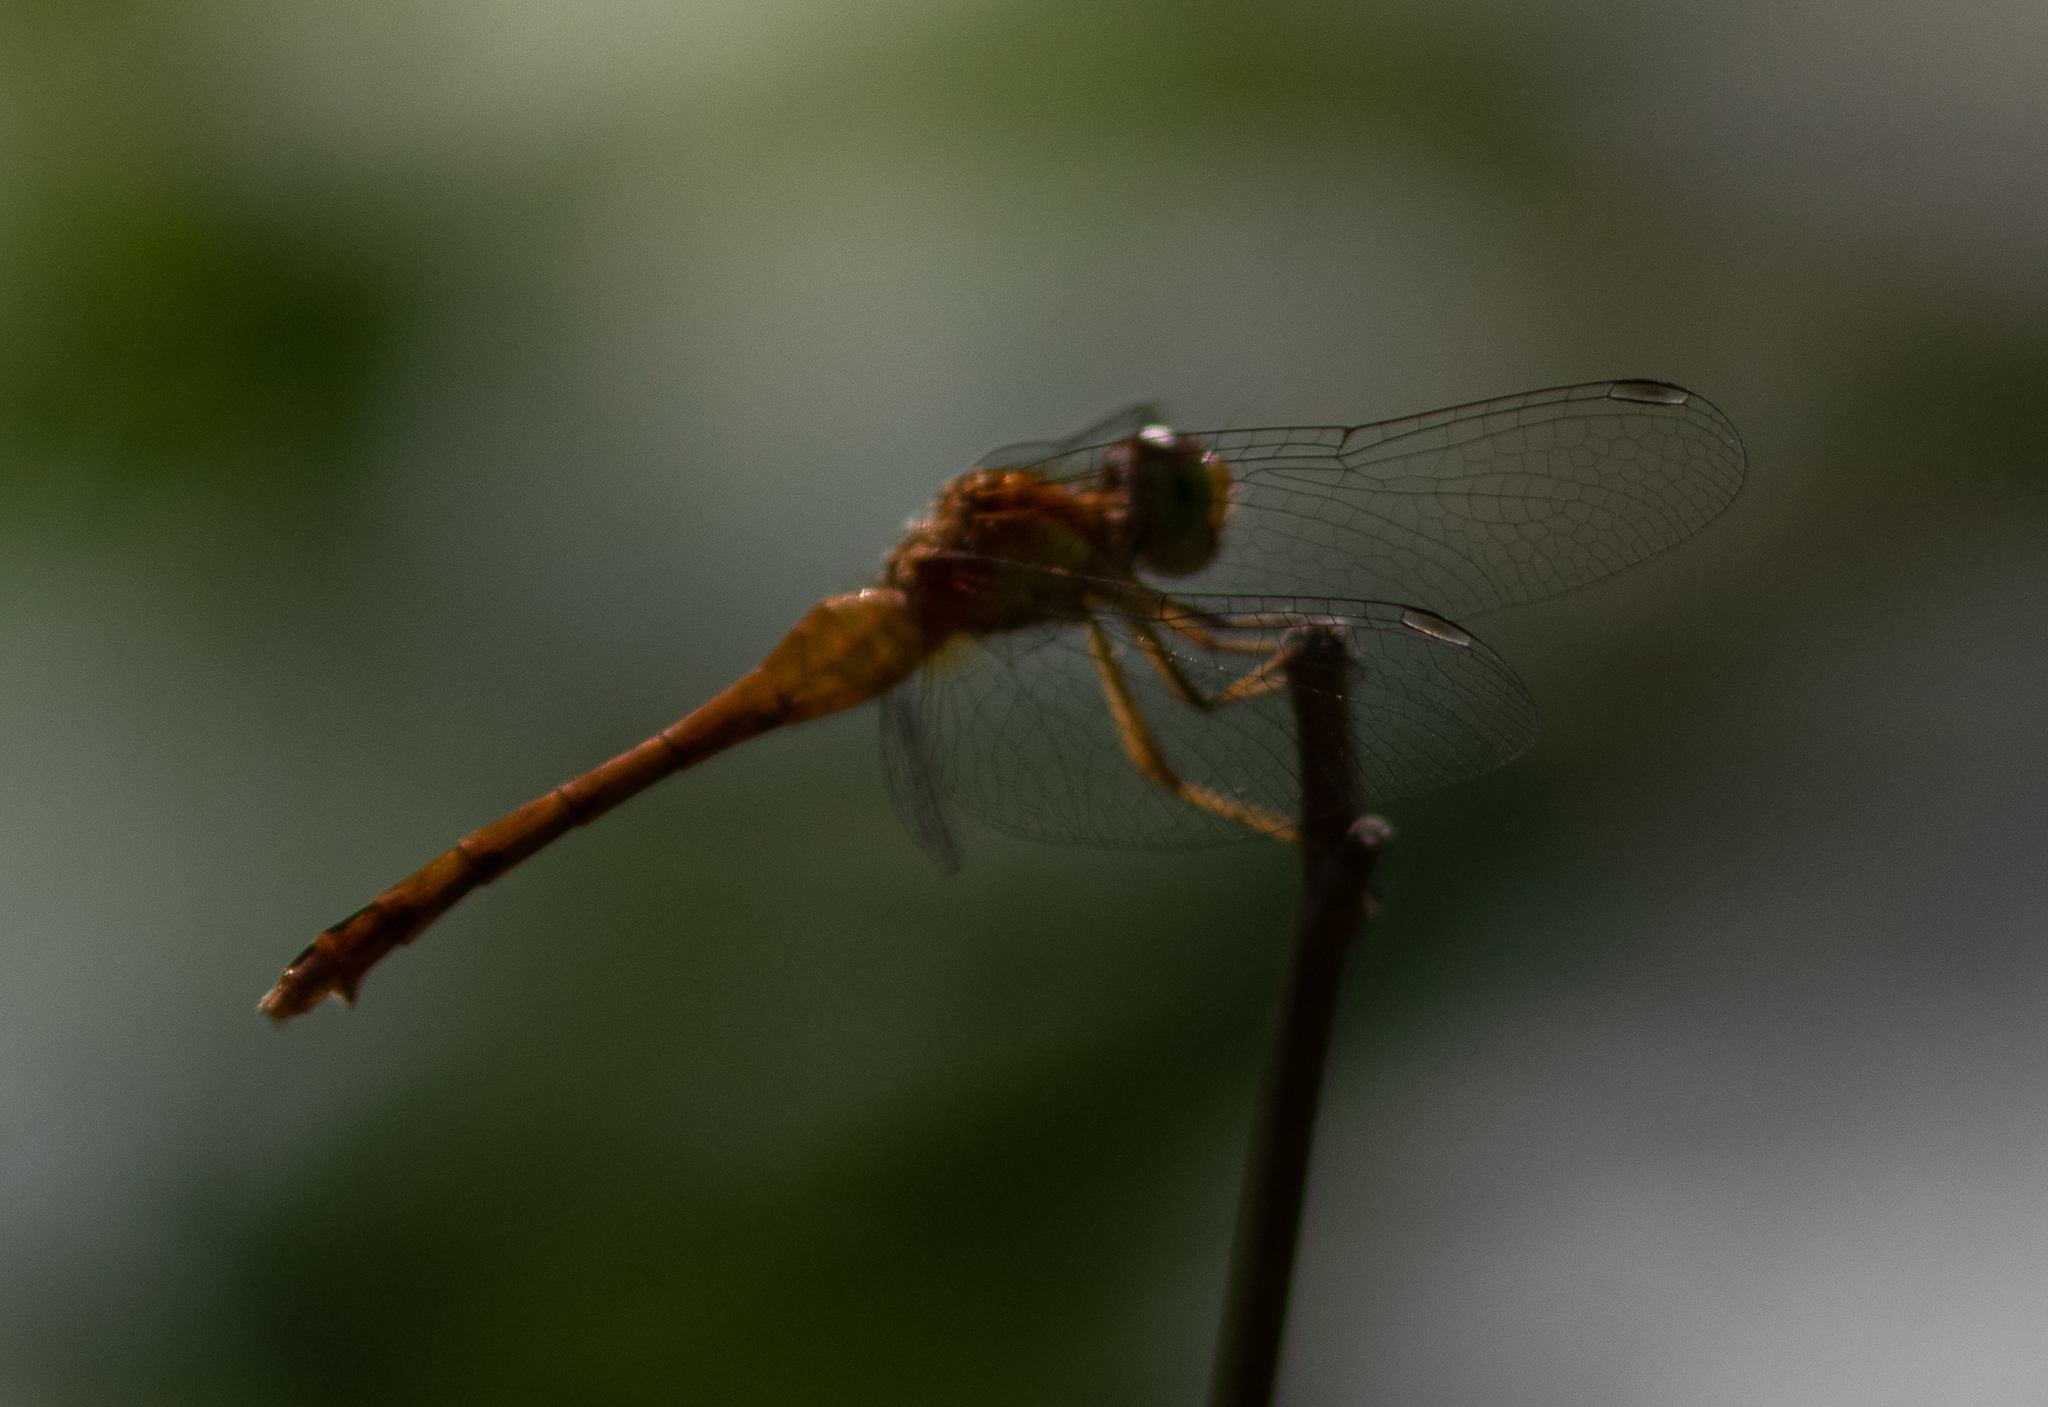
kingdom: Animalia
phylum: Arthropoda
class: Insecta
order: Odonata
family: Libellulidae
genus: Sympetrum
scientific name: Sympetrum vicinum
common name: Autumn meadowhawk
